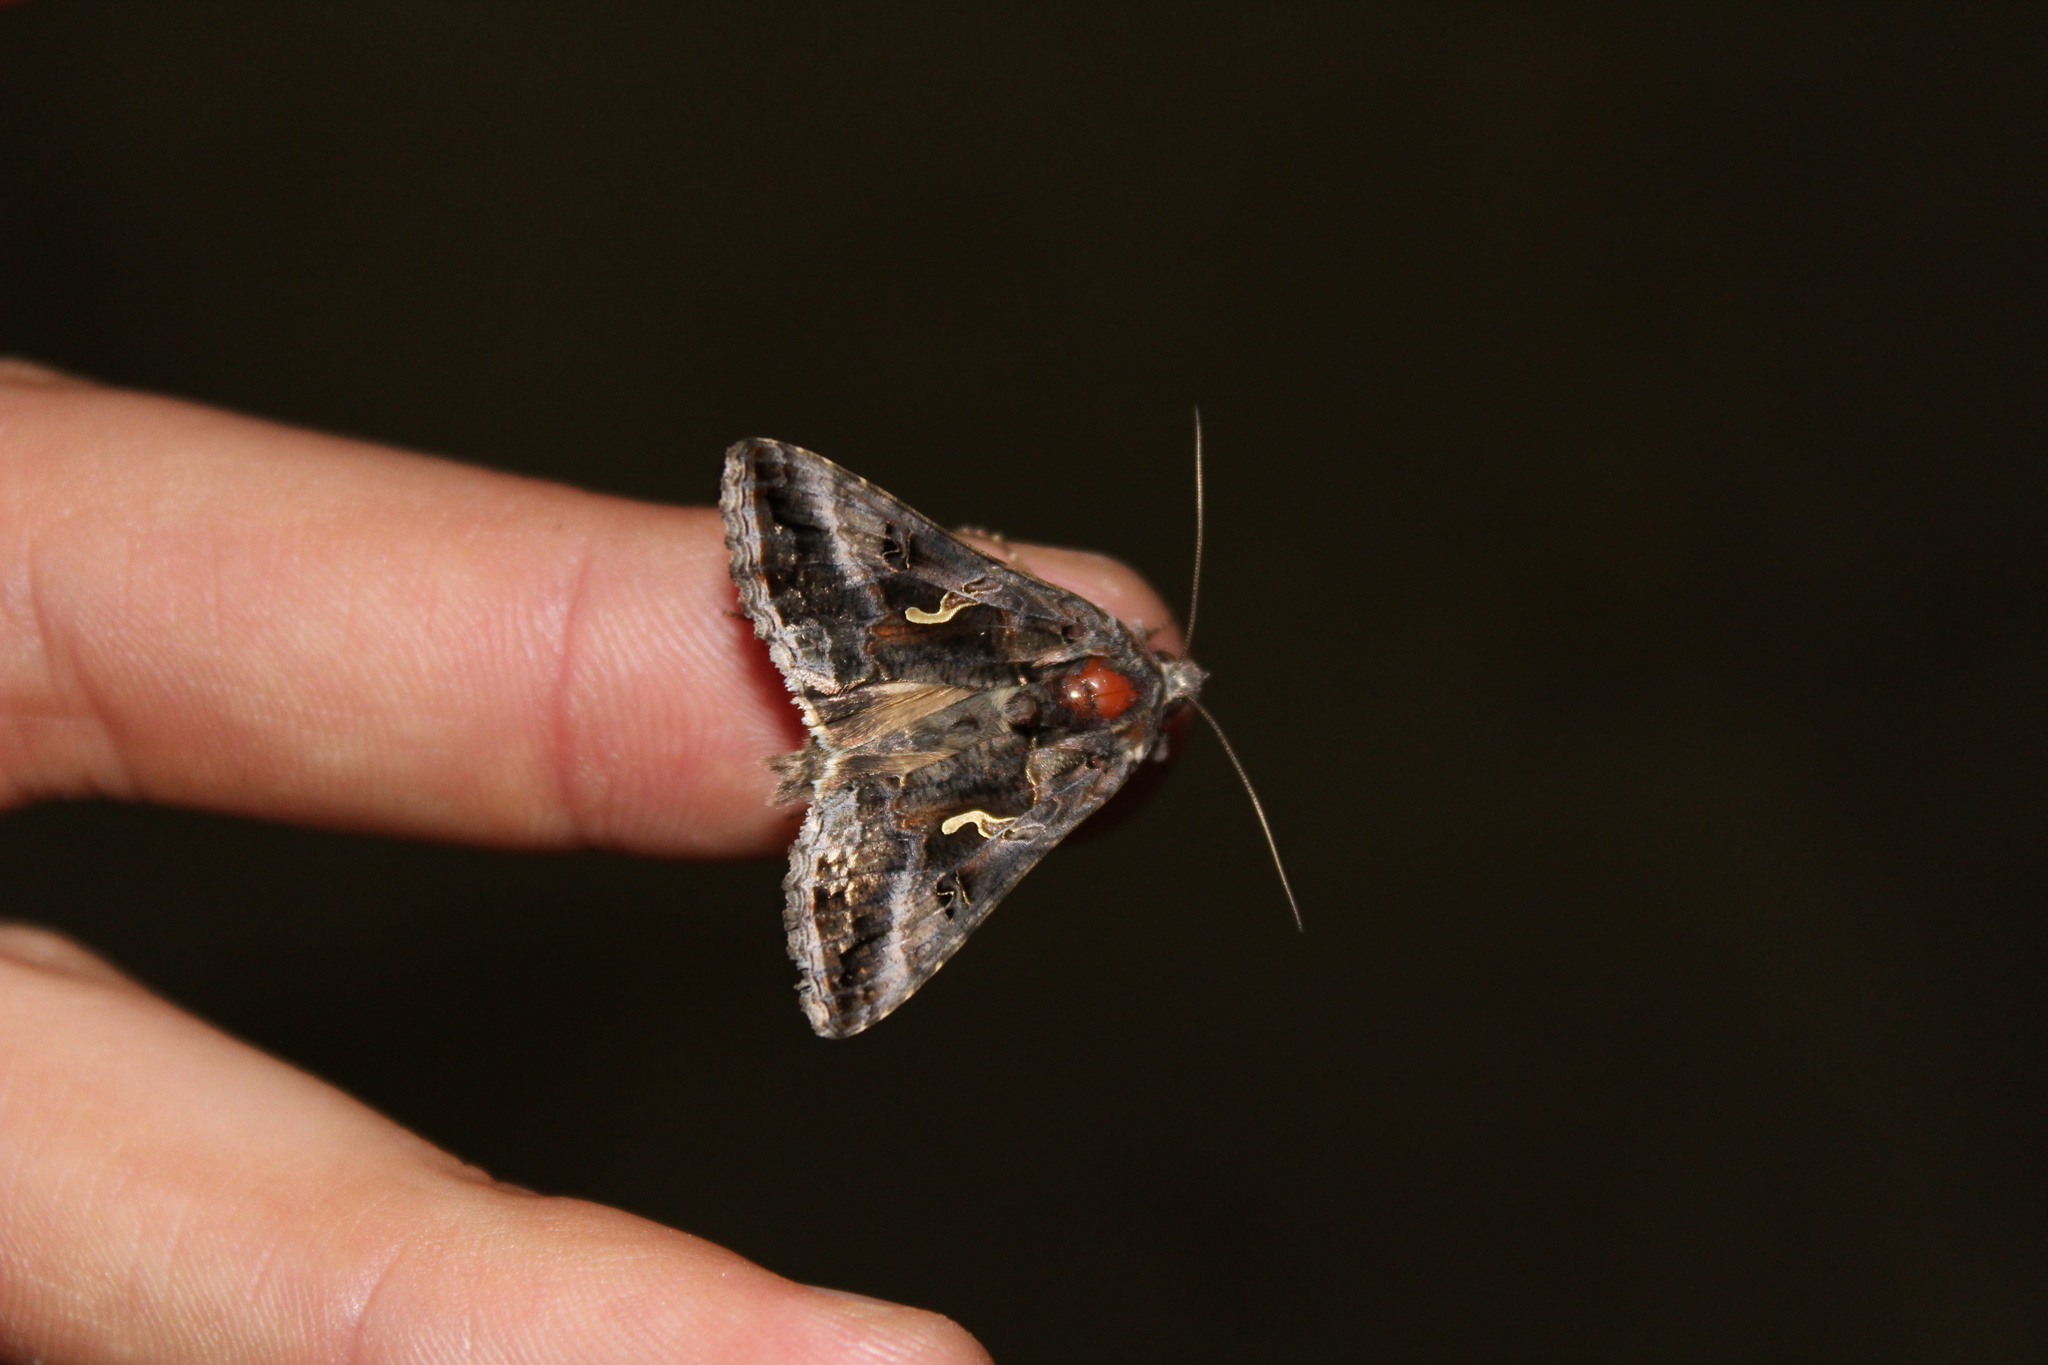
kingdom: Animalia
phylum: Arthropoda
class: Insecta
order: Lepidoptera
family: Noctuidae
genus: Autographa
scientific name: Autographa gamma
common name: Silver y
